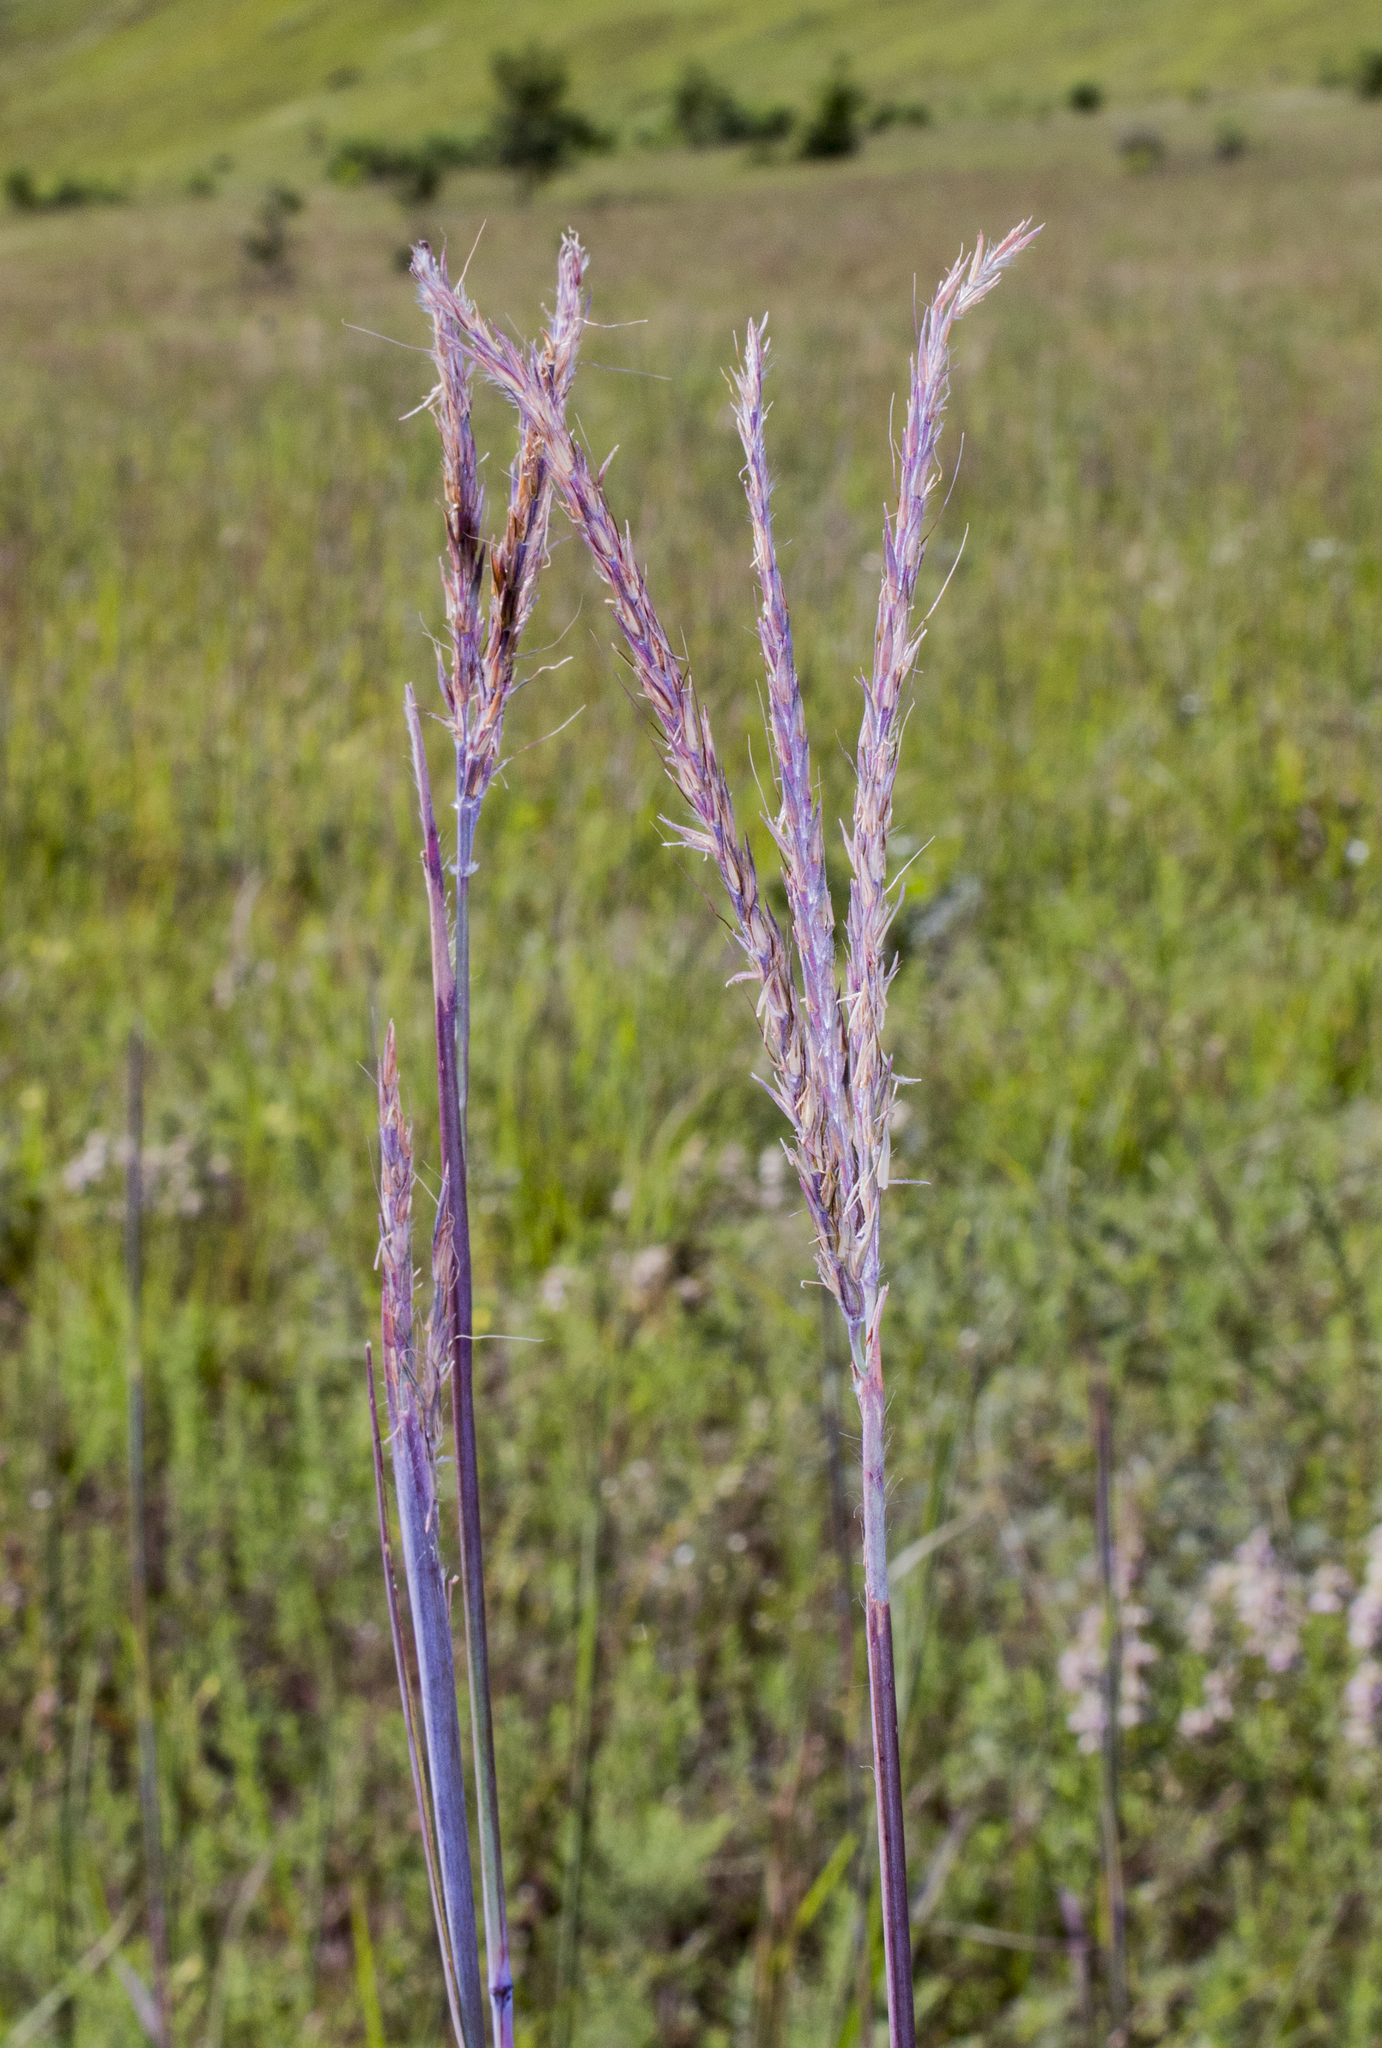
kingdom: Plantae
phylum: Tracheophyta
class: Liliopsida
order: Poales
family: Poaceae
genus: Andropogon
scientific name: Andropogon gerardi
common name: Big bluestem
